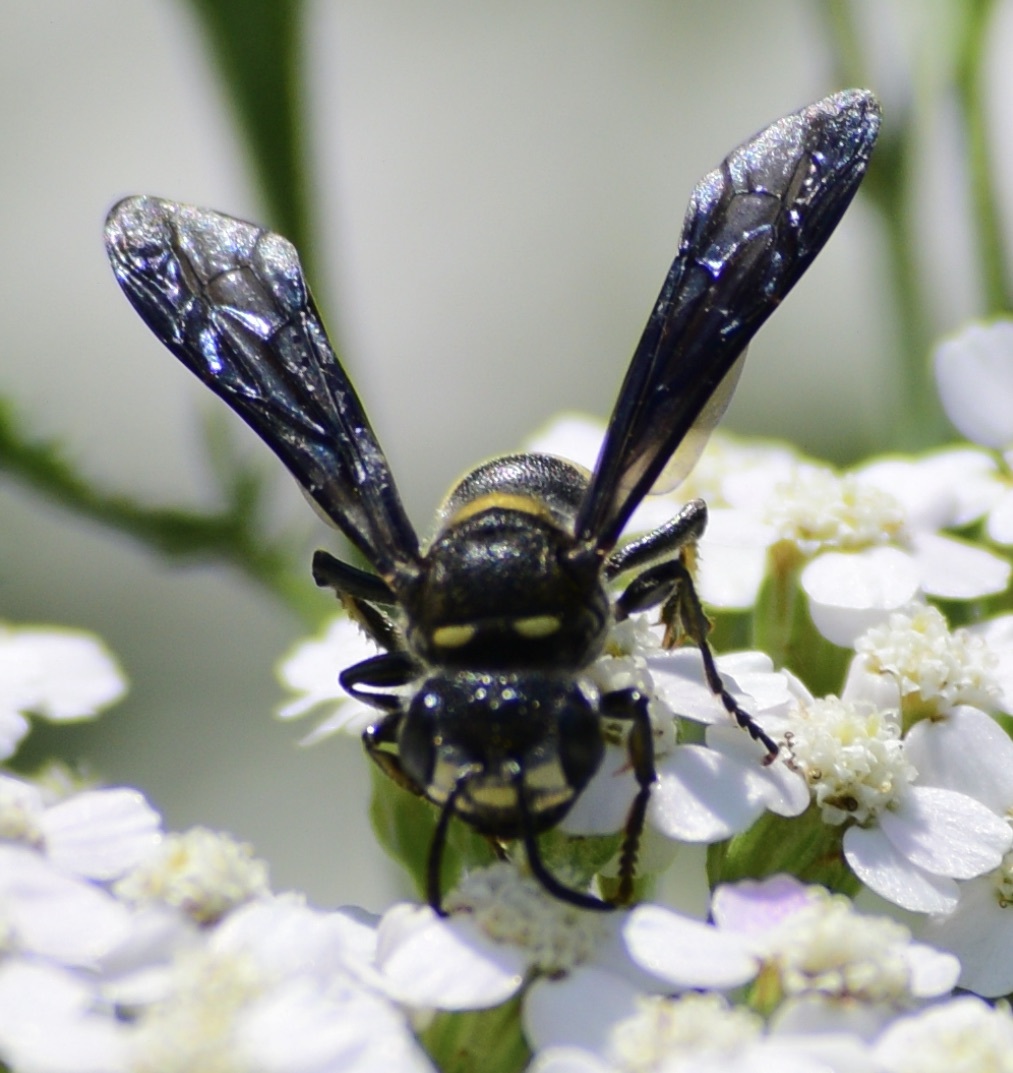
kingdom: Animalia
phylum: Arthropoda
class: Insecta
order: Hymenoptera
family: Crabronidae
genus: Cerceris
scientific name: Cerceris fumipennis
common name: Smokey-winged beetle bandit wasp
